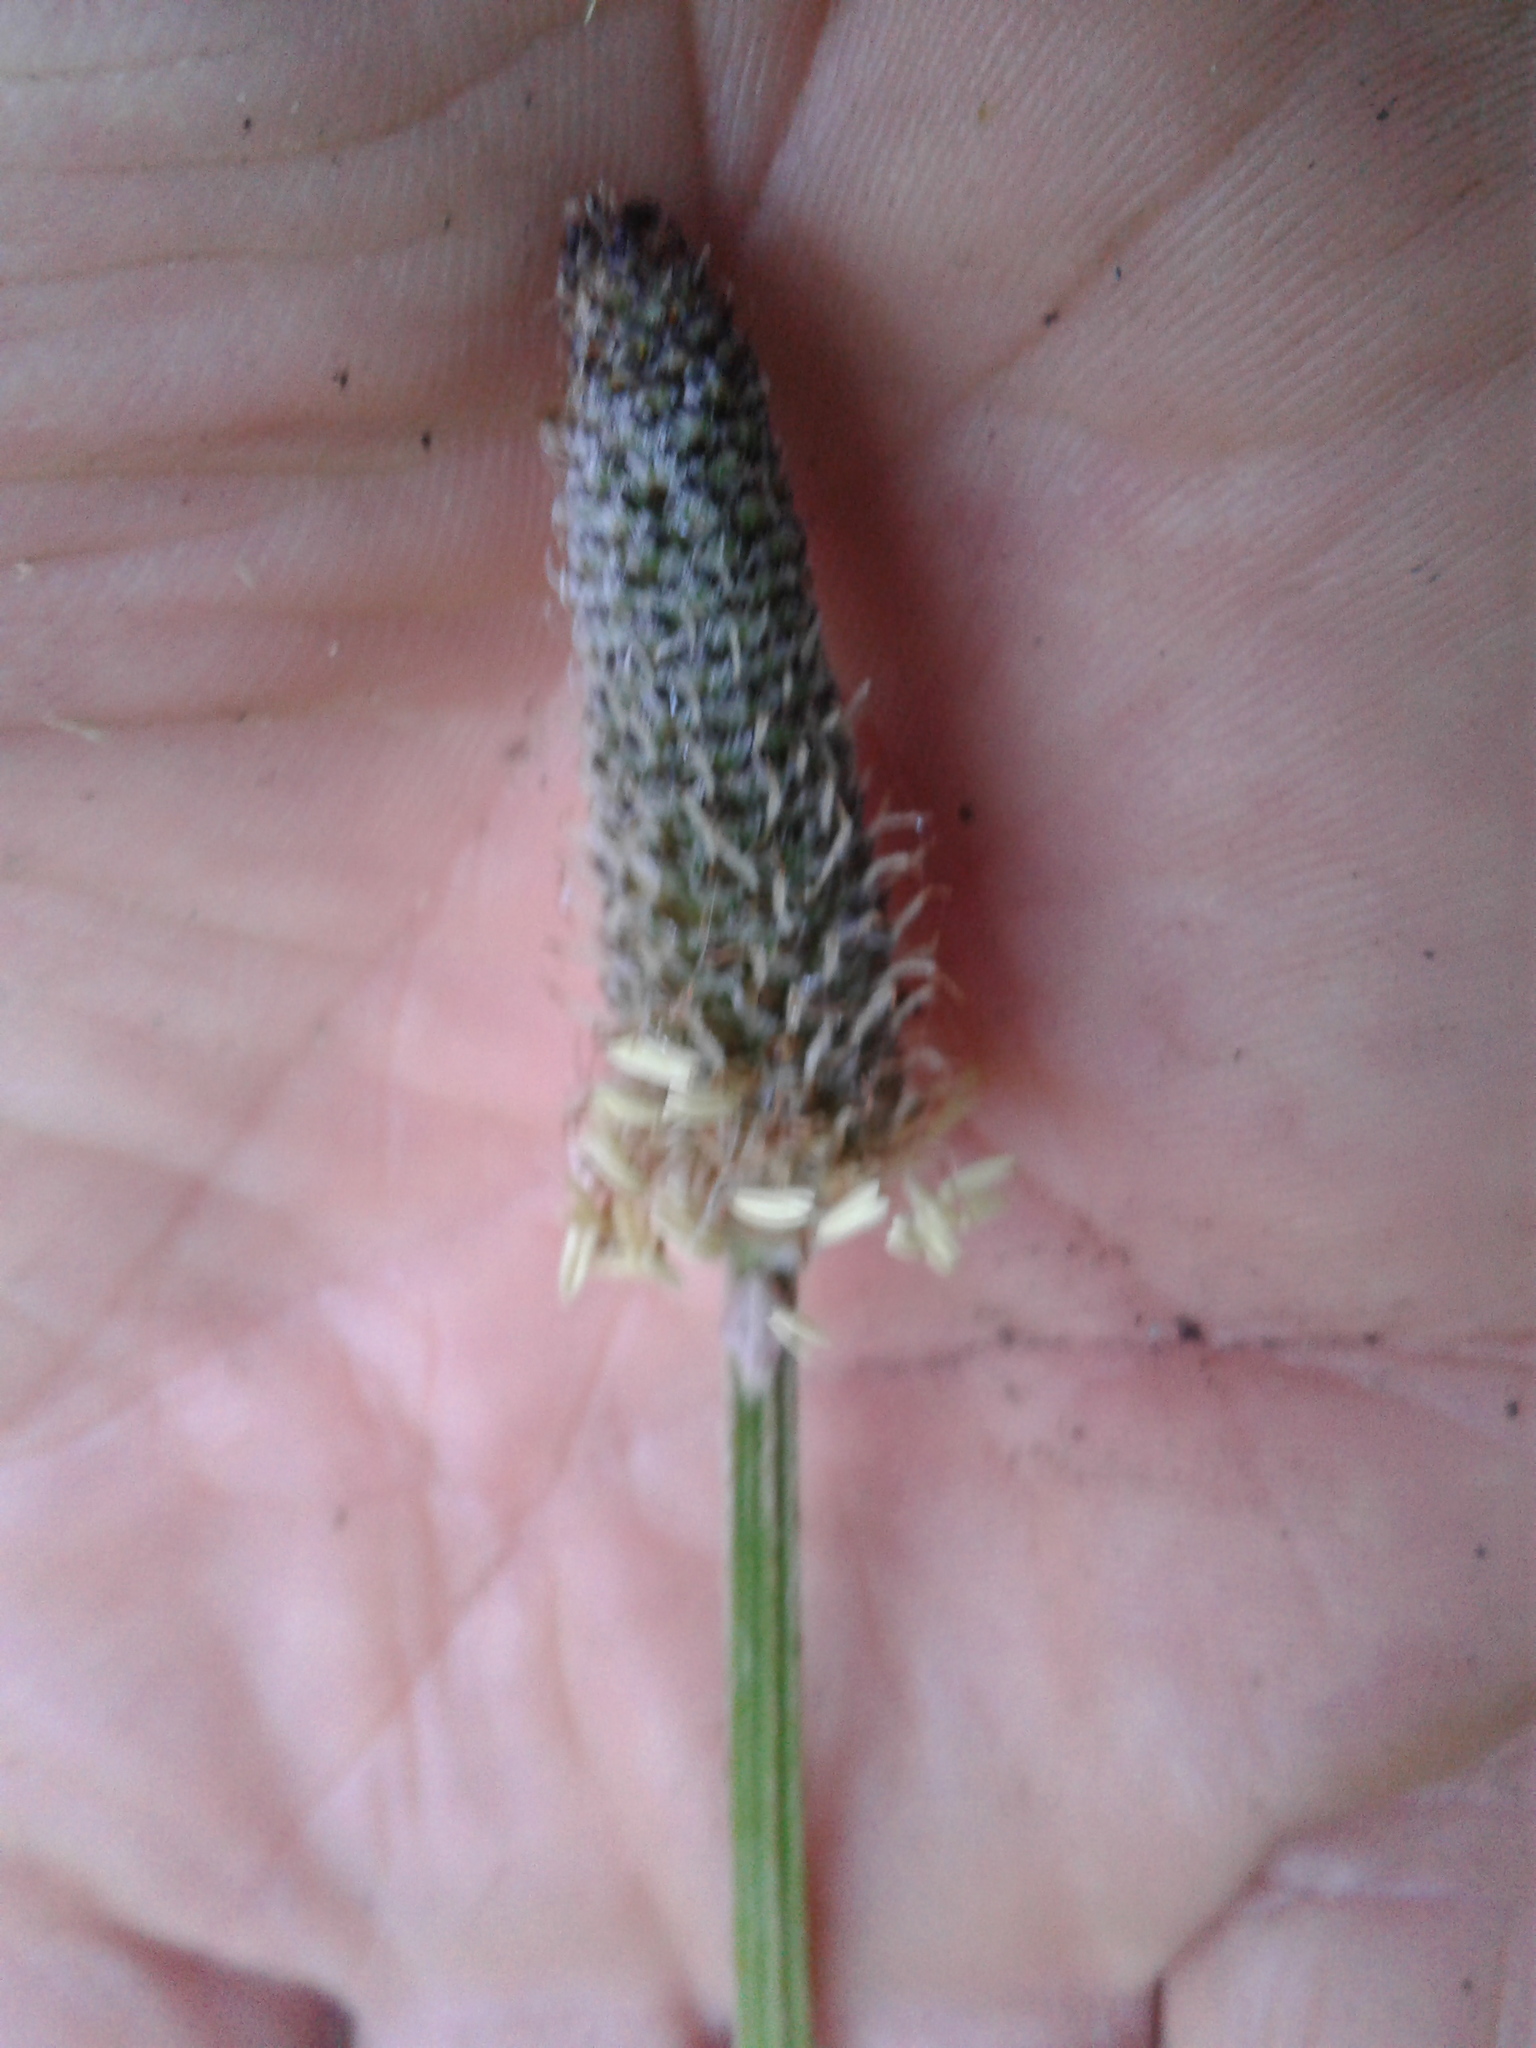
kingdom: Plantae
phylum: Tracheophyta
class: Magnoliopsida
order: Lamiales
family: Plantaginaceae
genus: Plantago
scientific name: Plantago lanceolata
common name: Ribwort plantain
